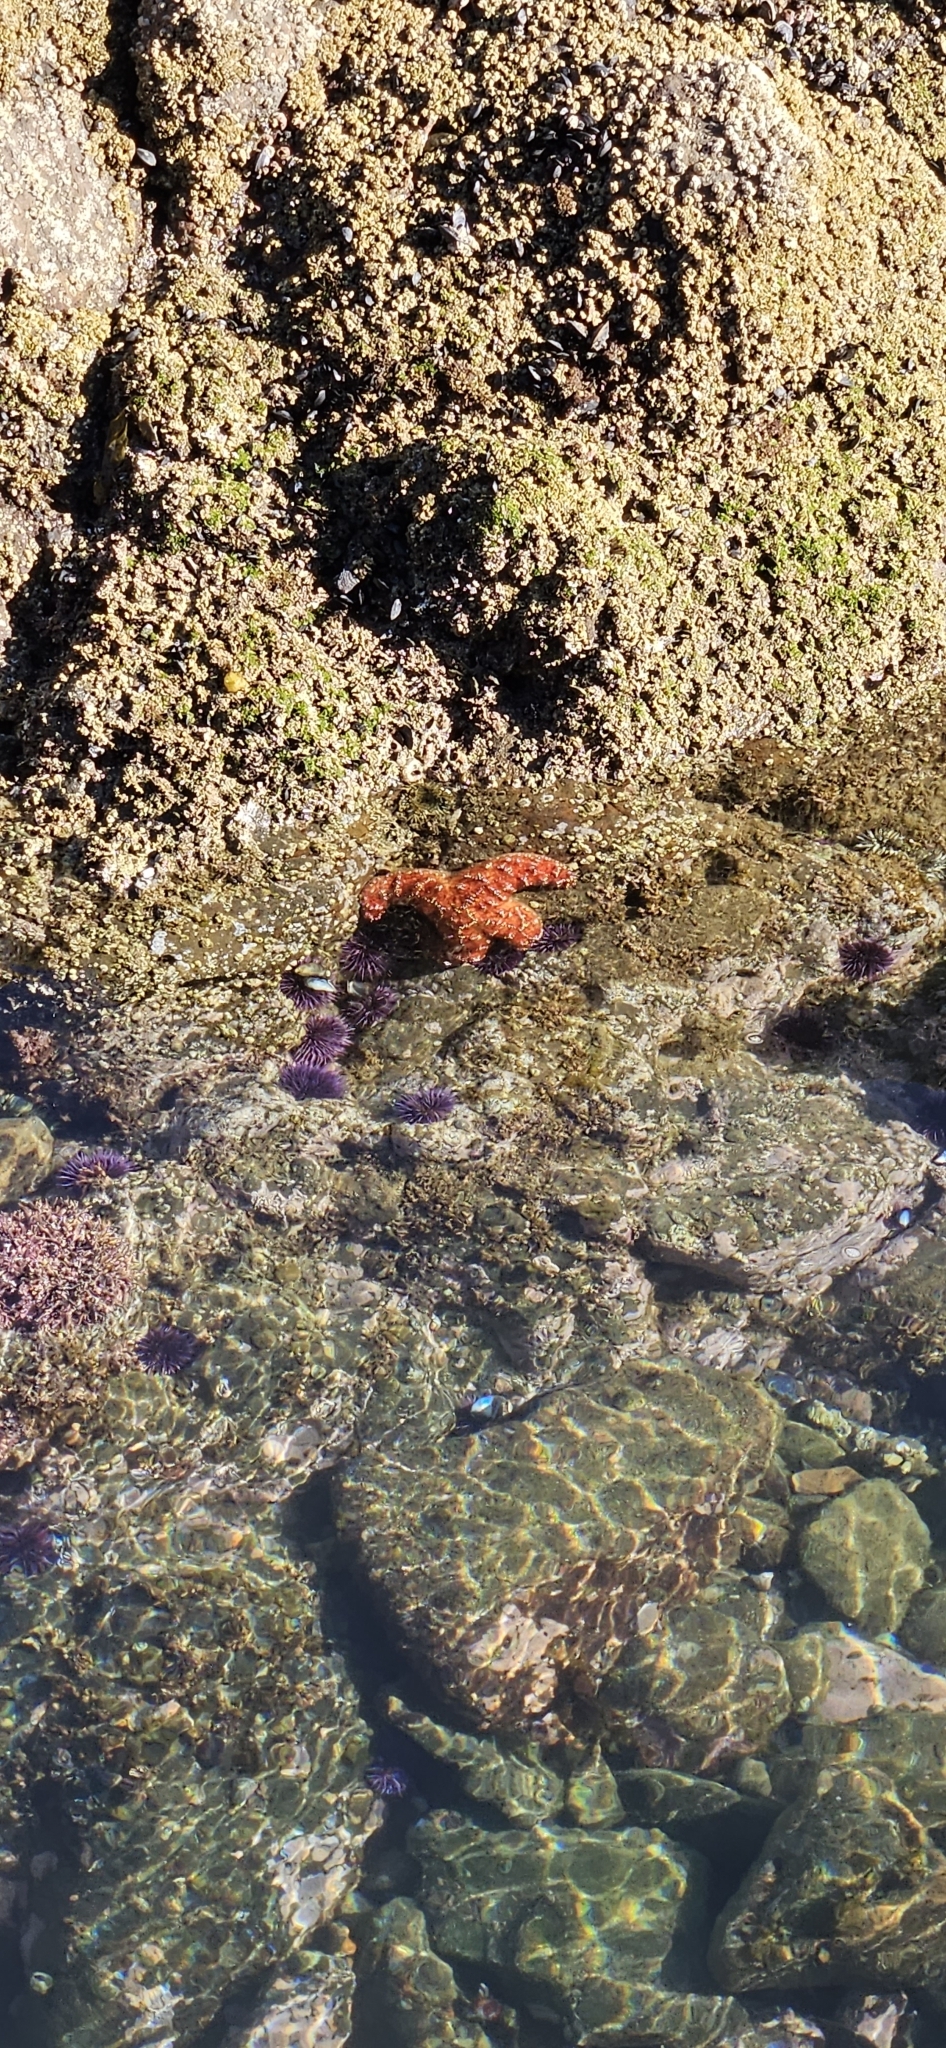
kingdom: Animalia
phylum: Echinodermata
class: Asteroidea
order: Forcipulatida
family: Asteriidae
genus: Pisaster
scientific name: Pisaster ochraceus
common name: Ochre stars
